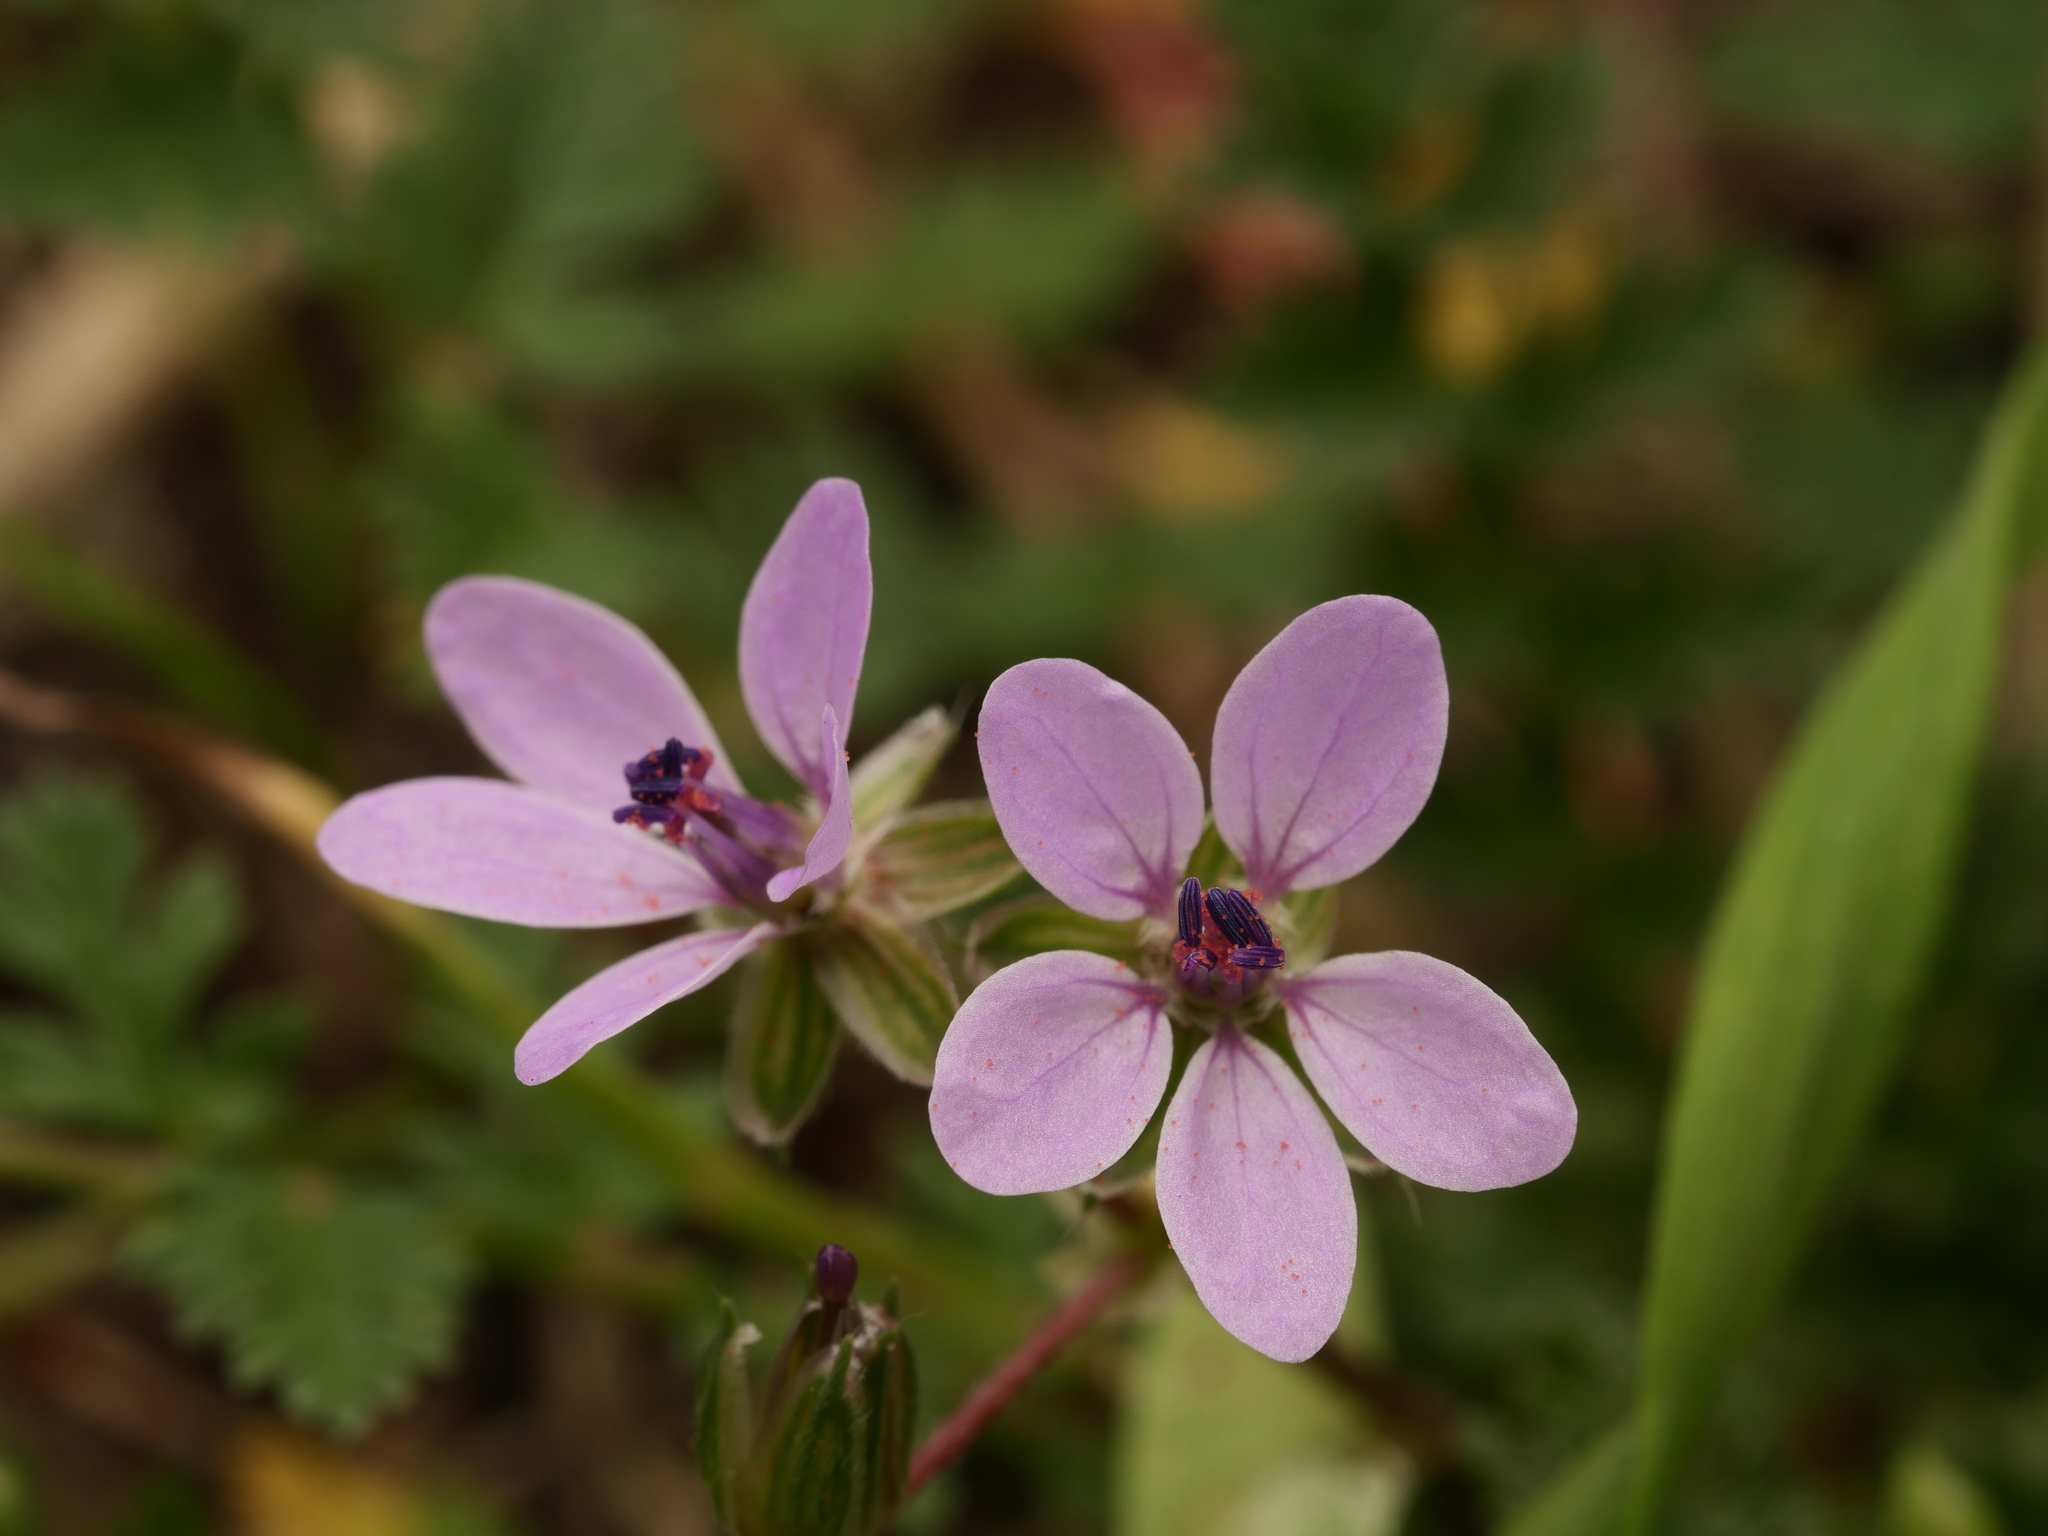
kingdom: Plantae
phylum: Tracheophyta
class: Magnoliopsida
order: Geraniales
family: Geraniaceae
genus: Erodium
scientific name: Erodium cicutarium
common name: Common stork's-bill
